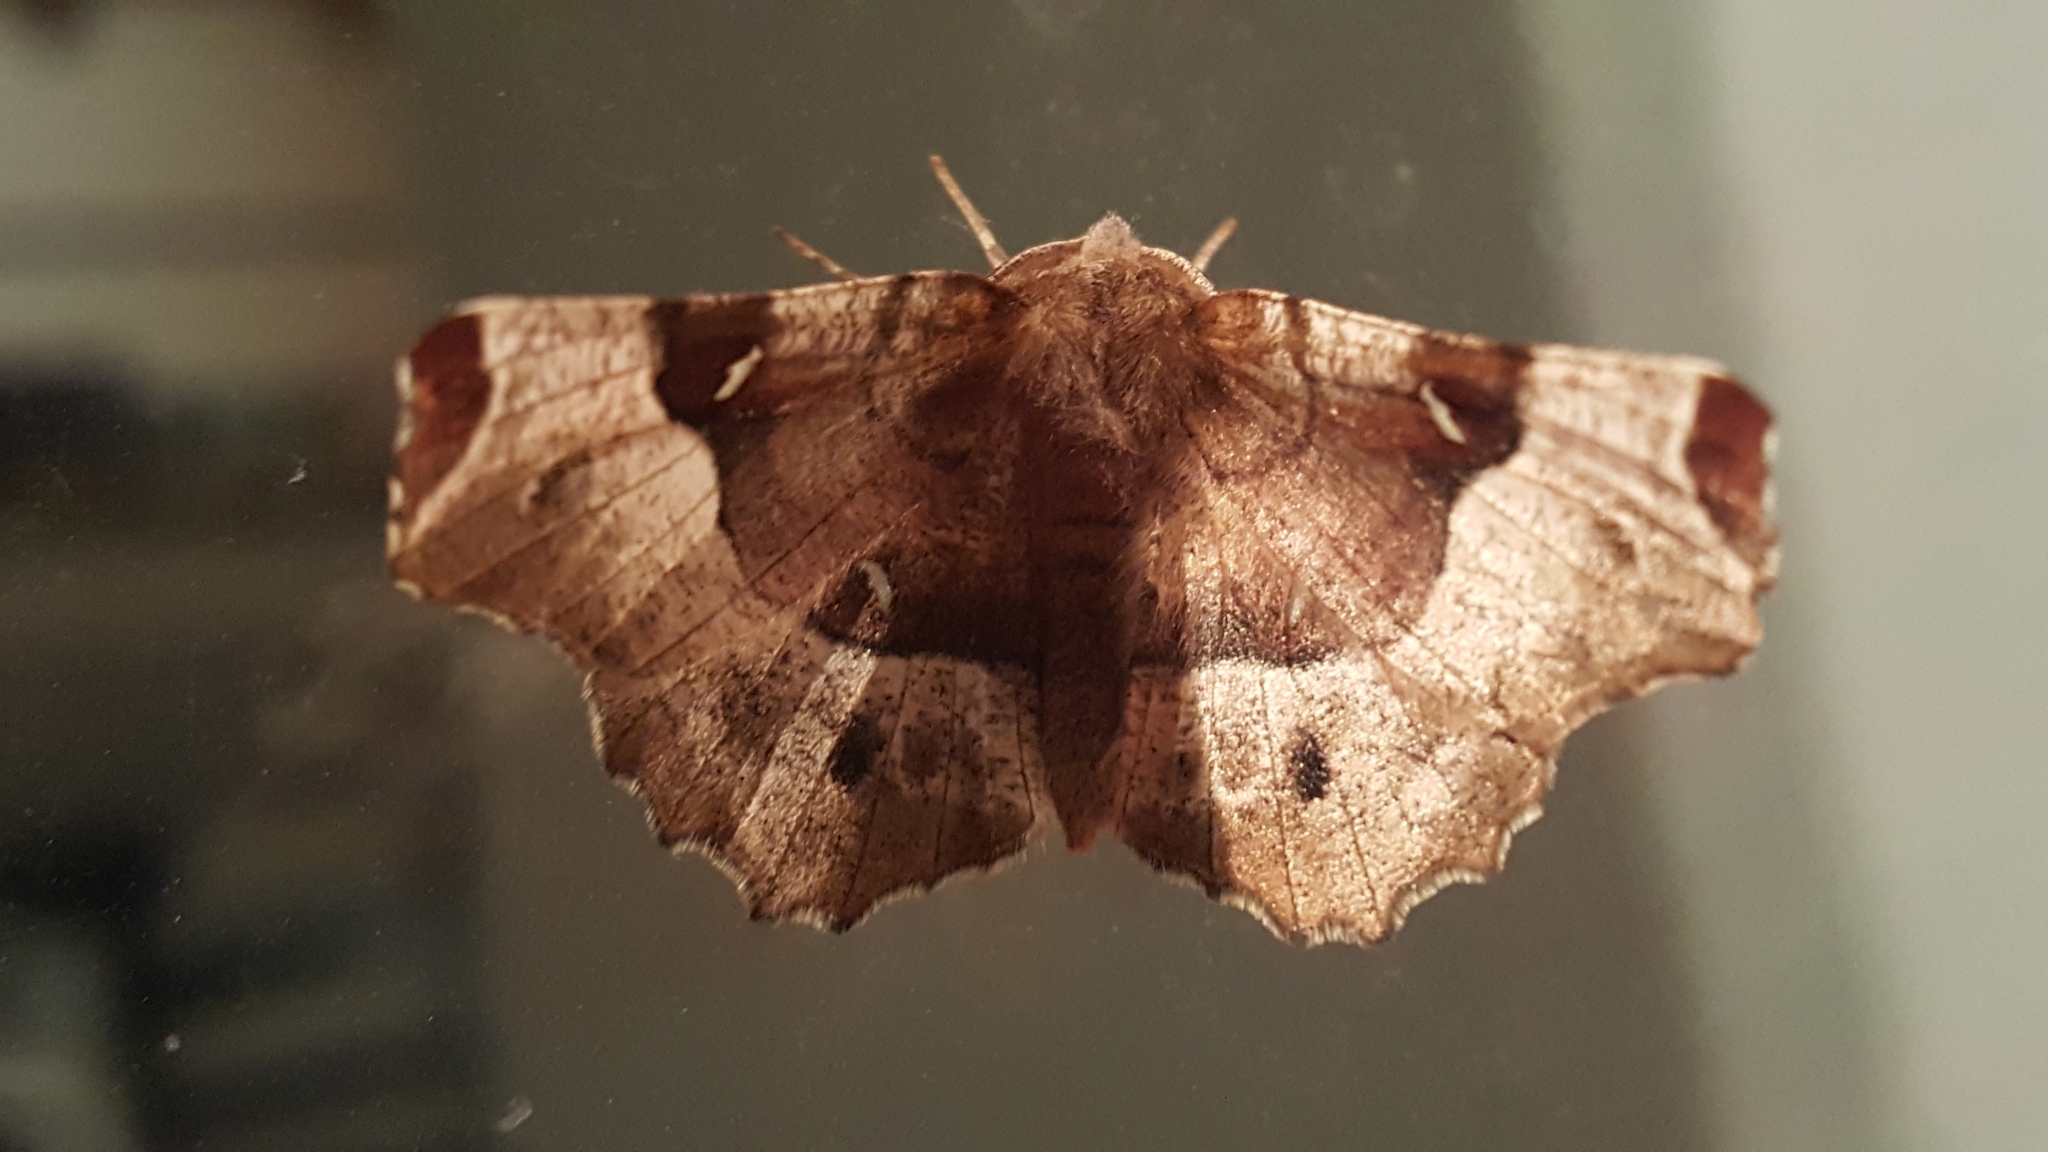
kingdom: Animalia
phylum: Arthropoda
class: Insecta
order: Lepidoptera
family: Geometridae
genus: Selenia
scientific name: Selenia tetralunaria
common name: Purple thorn
